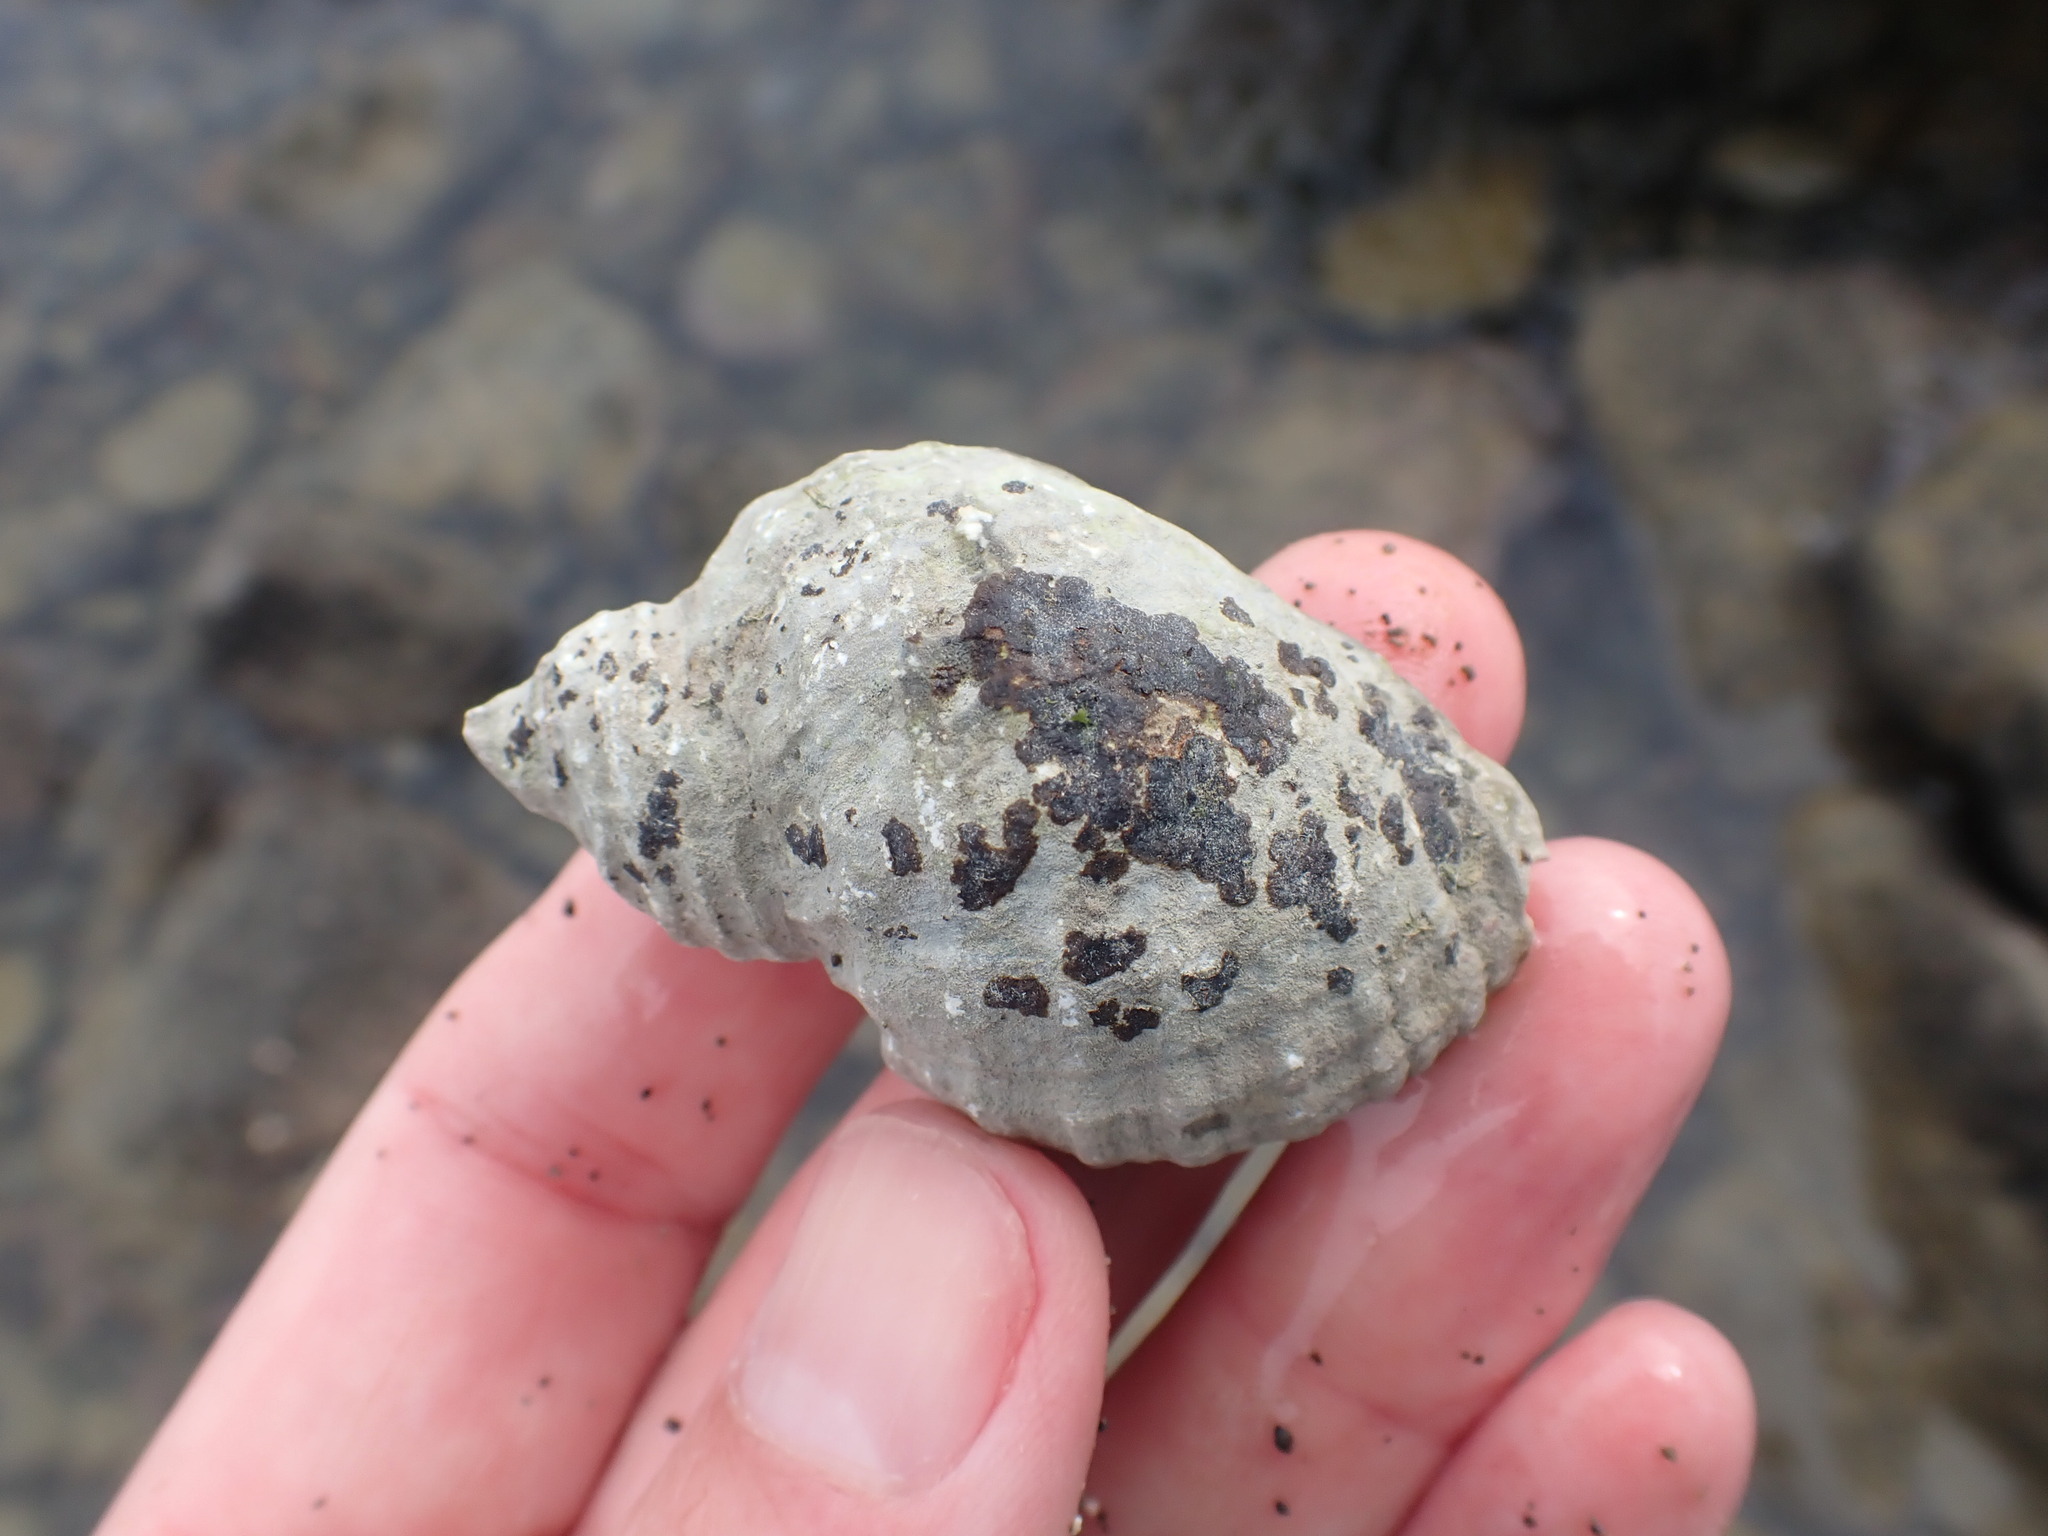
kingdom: Animalia
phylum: Mollusca
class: Gastropoda
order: Neogastropoda
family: Muricidae
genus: Dicathais
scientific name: Dicathais orbita
